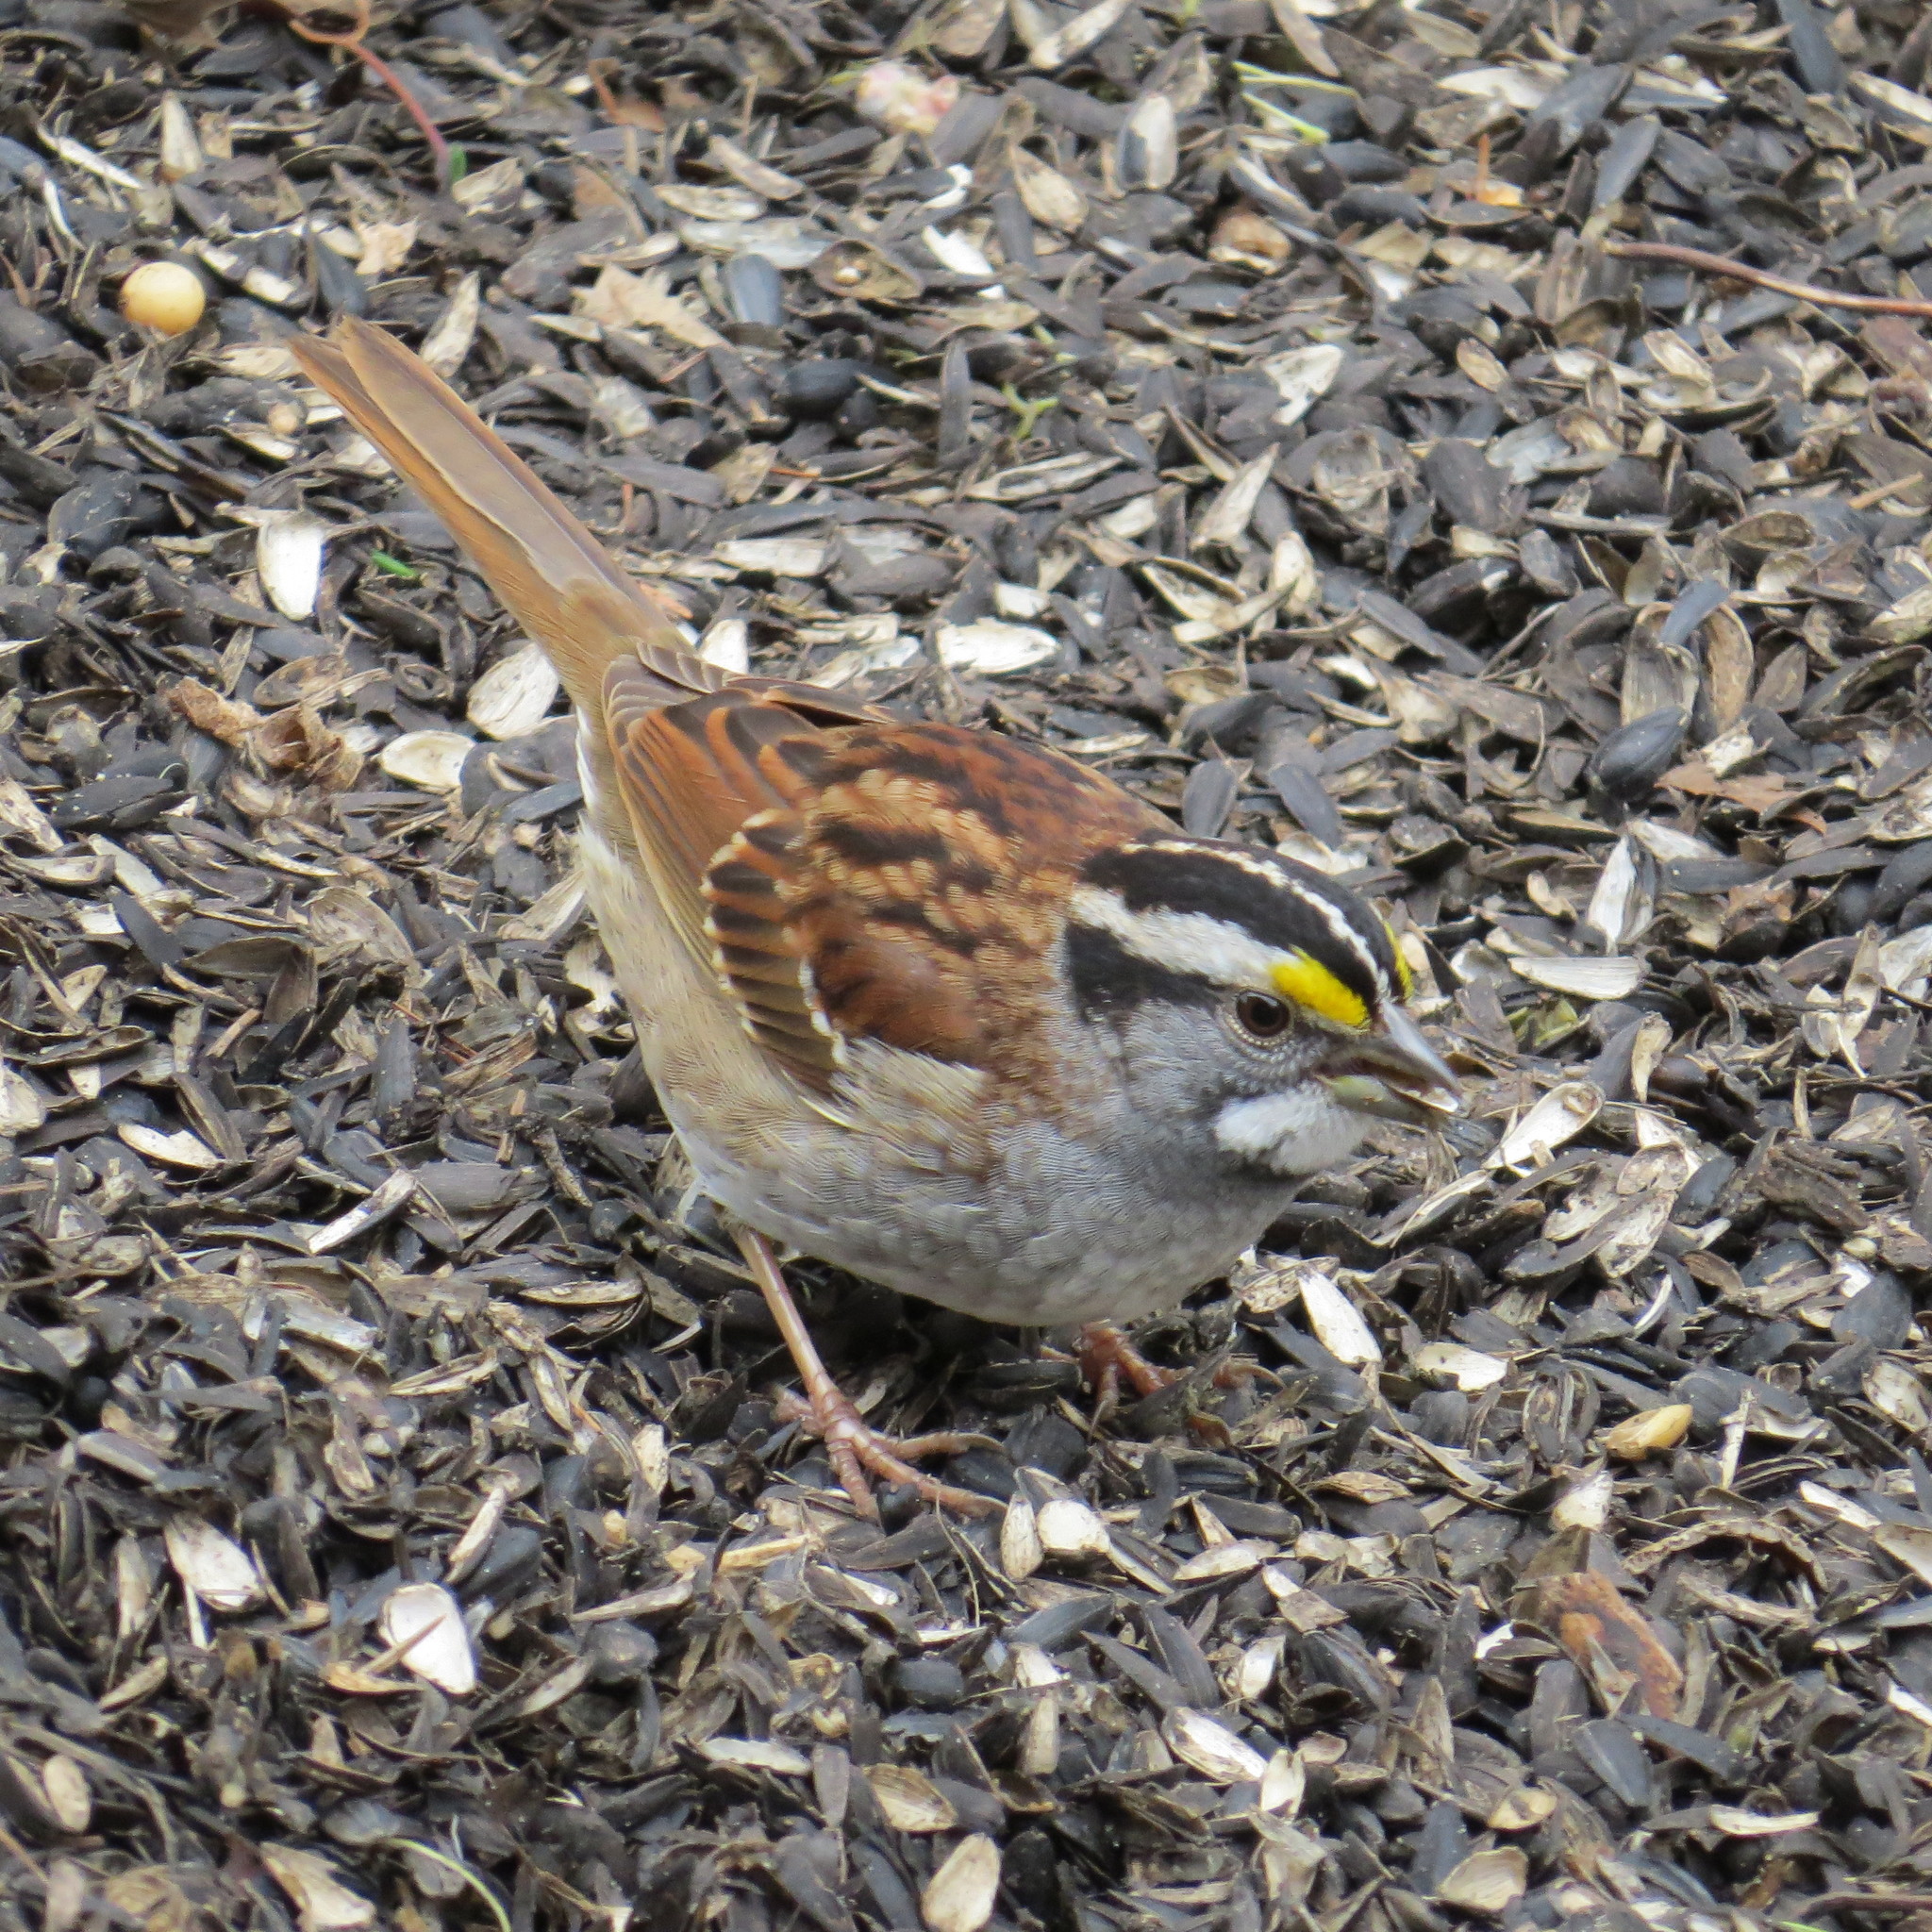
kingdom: Animalia
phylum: Chordata
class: Aves
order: Passeriformes
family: Passerellidae
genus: Zonotrichia
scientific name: Zonotrichia albicollis
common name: White-throated sparrow
